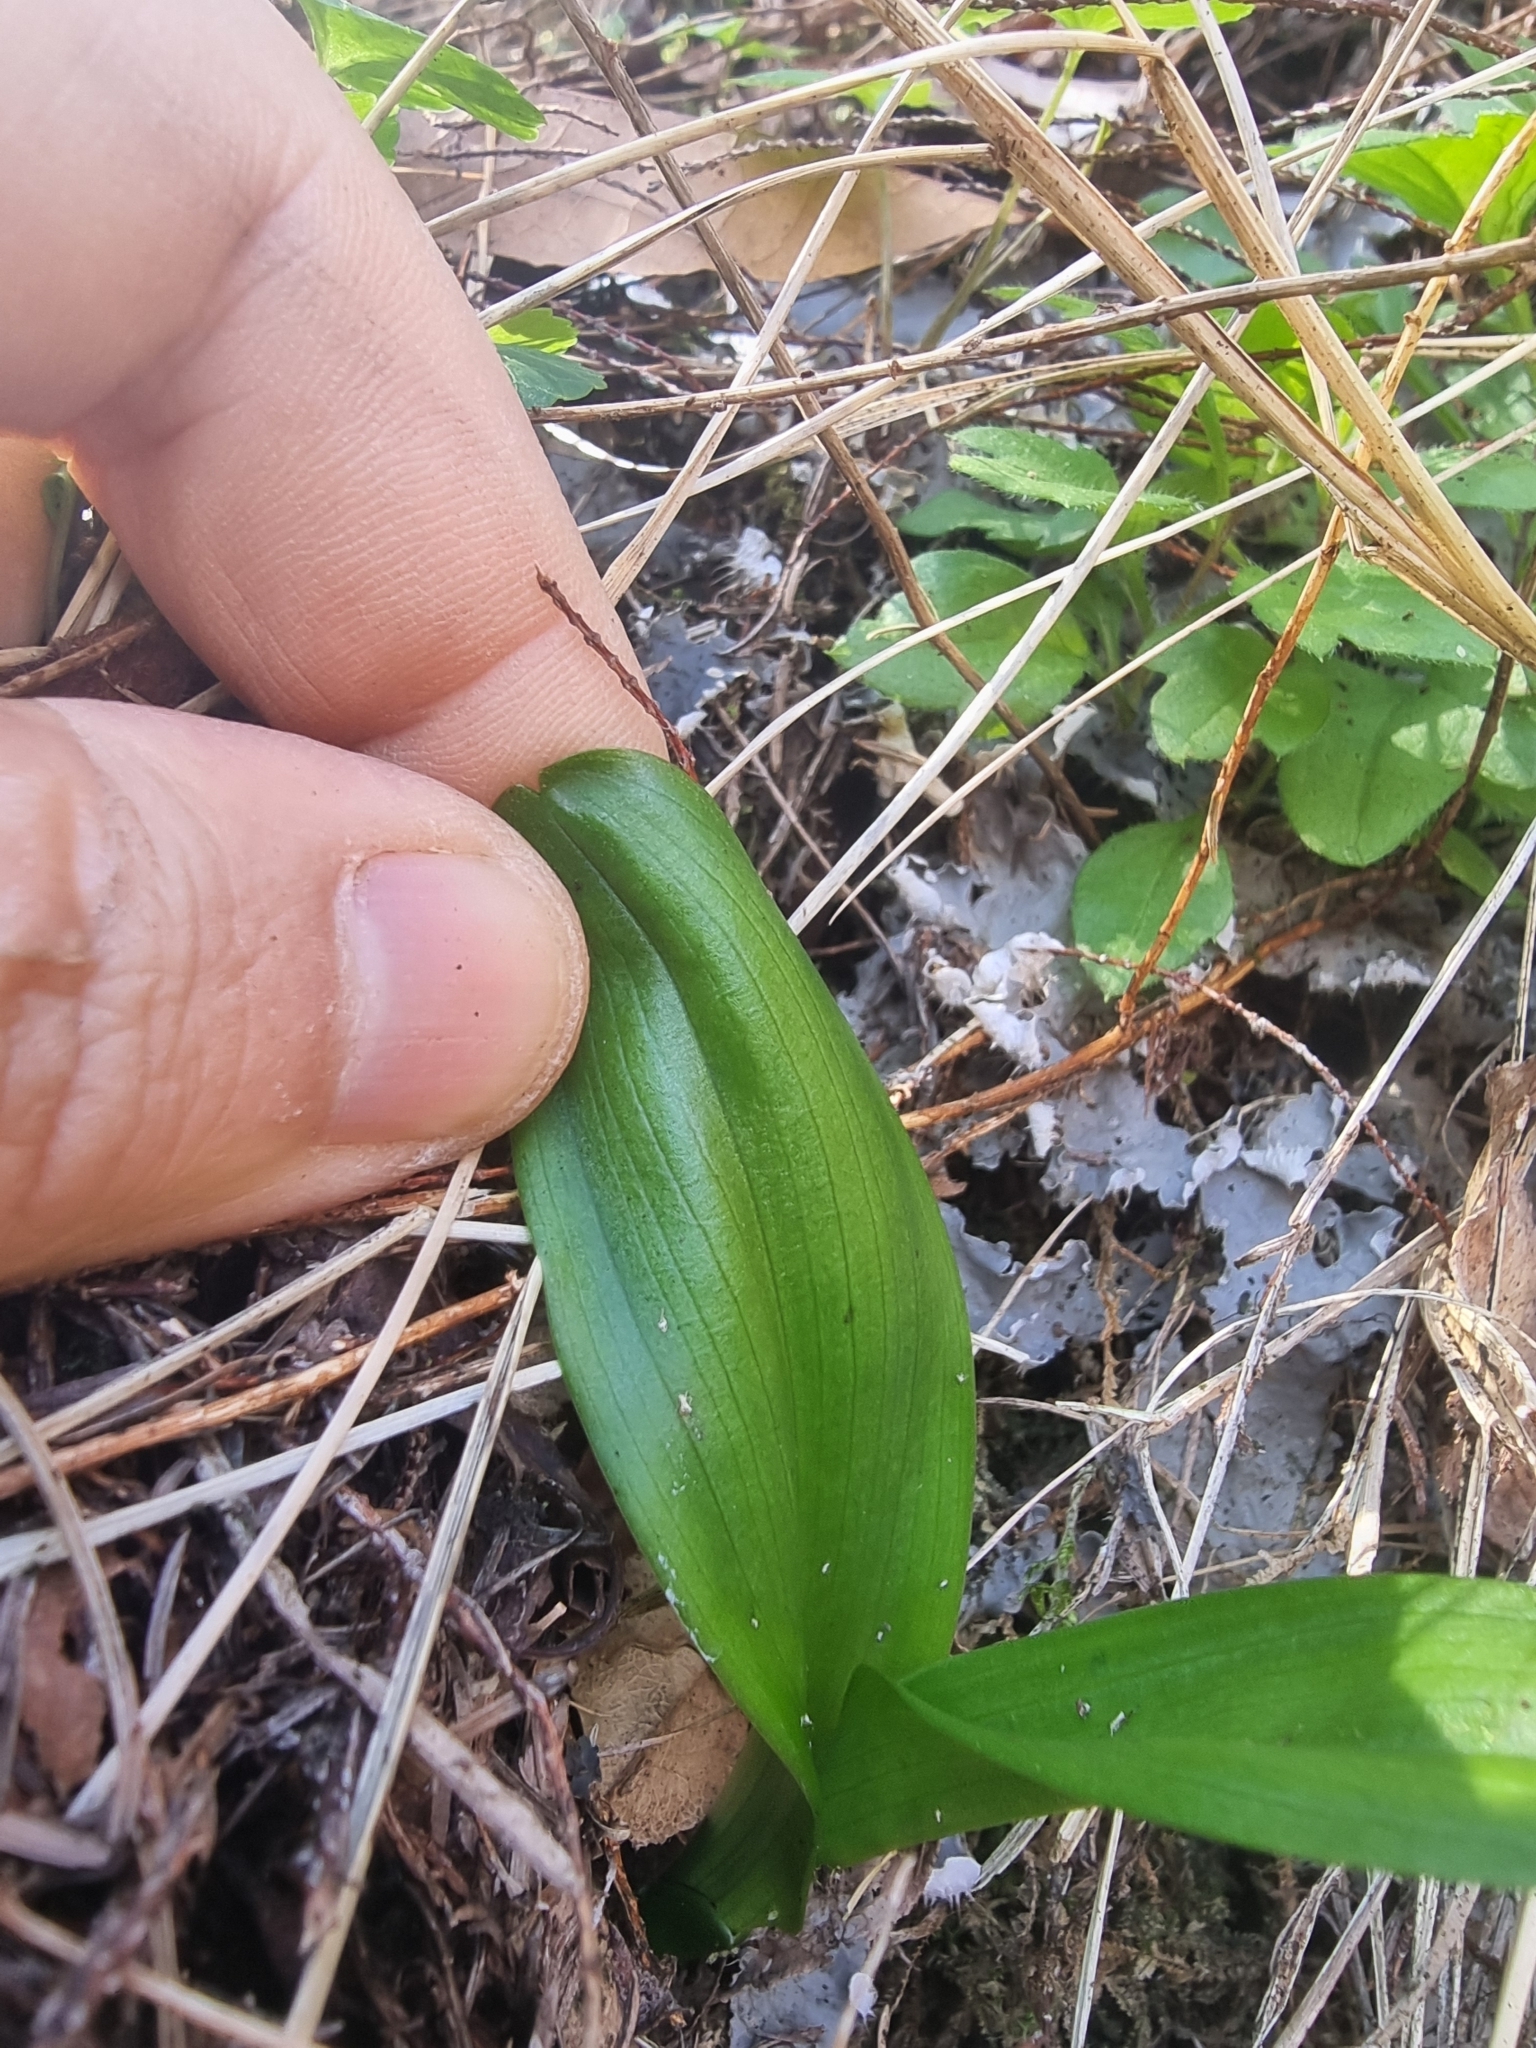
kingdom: Plantae
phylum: Tracheophyta
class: Liliopsida
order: Asparagales
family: Orchidaceae
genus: Dactylorhiza
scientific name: Dactylorhiza foliosa
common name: Richly-leaved dactylorhiza
